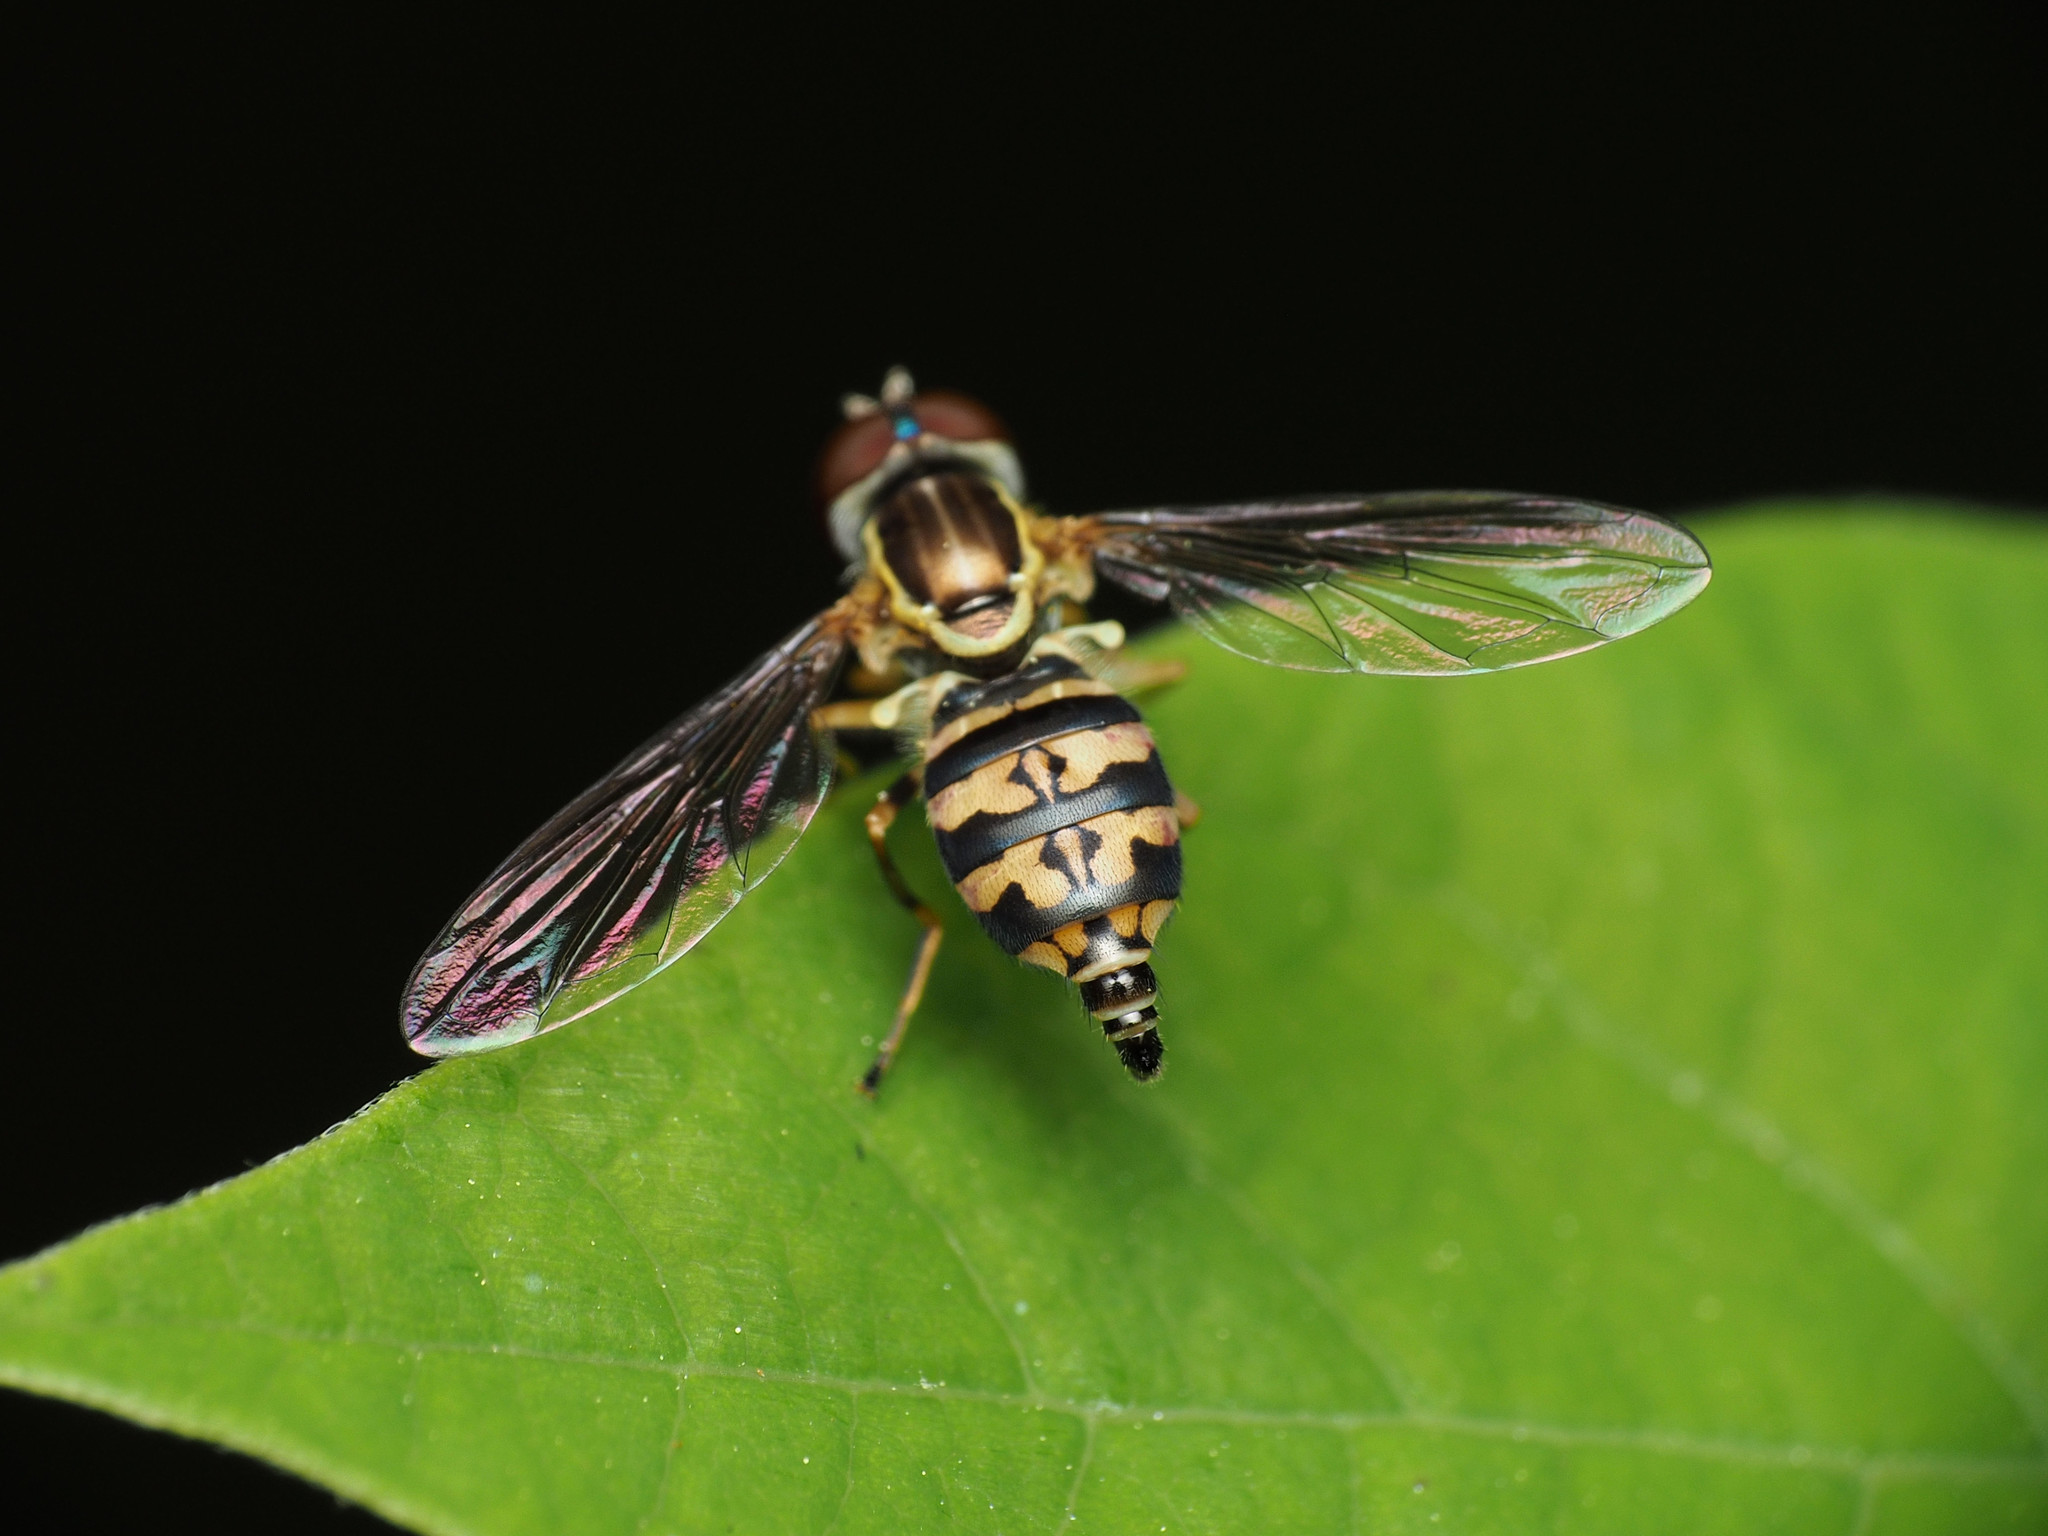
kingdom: Animalia
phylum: Arthropoda
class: Insecta
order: Diptera
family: Syrphidae
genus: Toxomerus
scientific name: Toxomerus geminatus
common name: Eastern calligrapher
